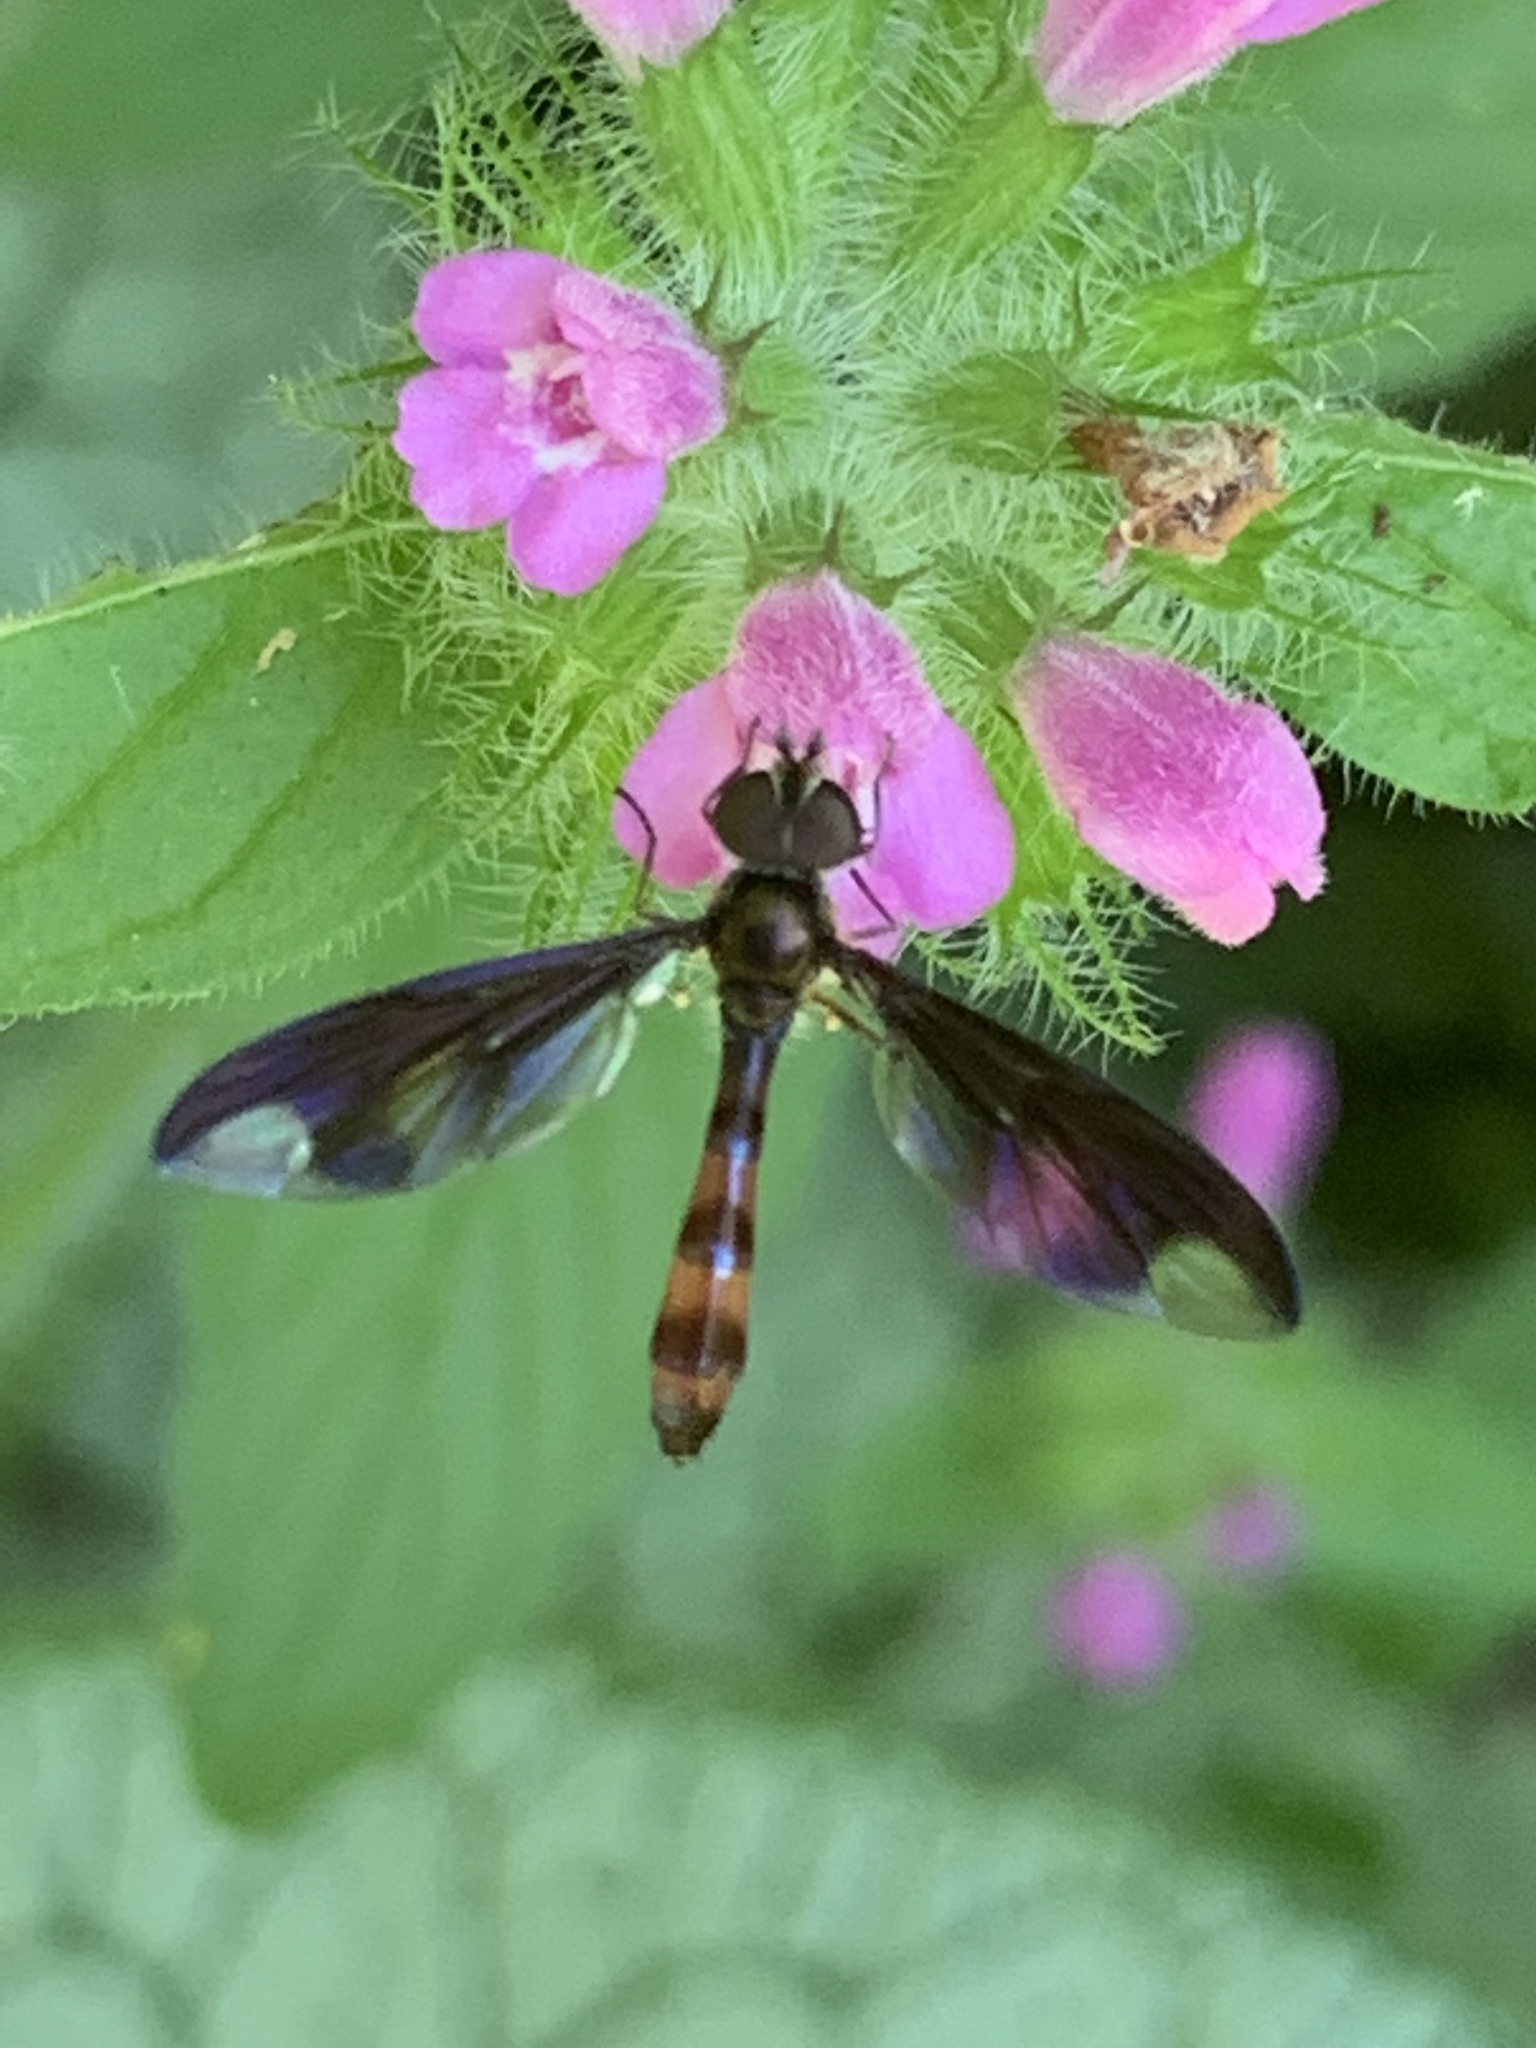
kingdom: Animalia
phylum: Arthropoda
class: Insecta
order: Diptera
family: Syrphidae
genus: Ocyptamus
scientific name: Ocyptamus fuscipennis
